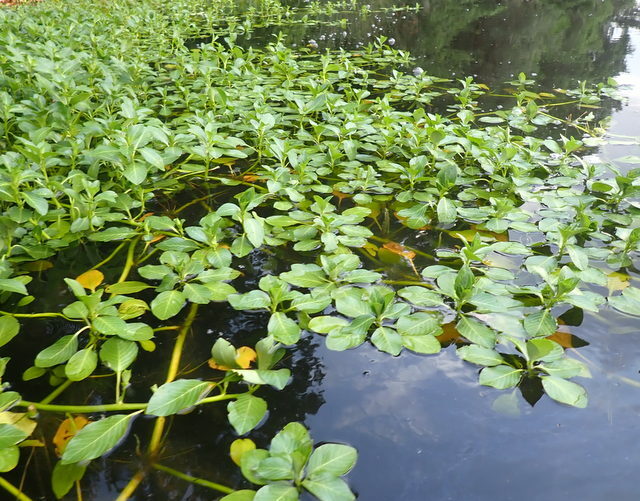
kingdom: Plantae
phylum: Tracheophyta
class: Magnoliopsida
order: Myrtales
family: Onagraceae
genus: Ludwigia
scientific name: Ludwigia peploides
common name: Floating primrose-willow
